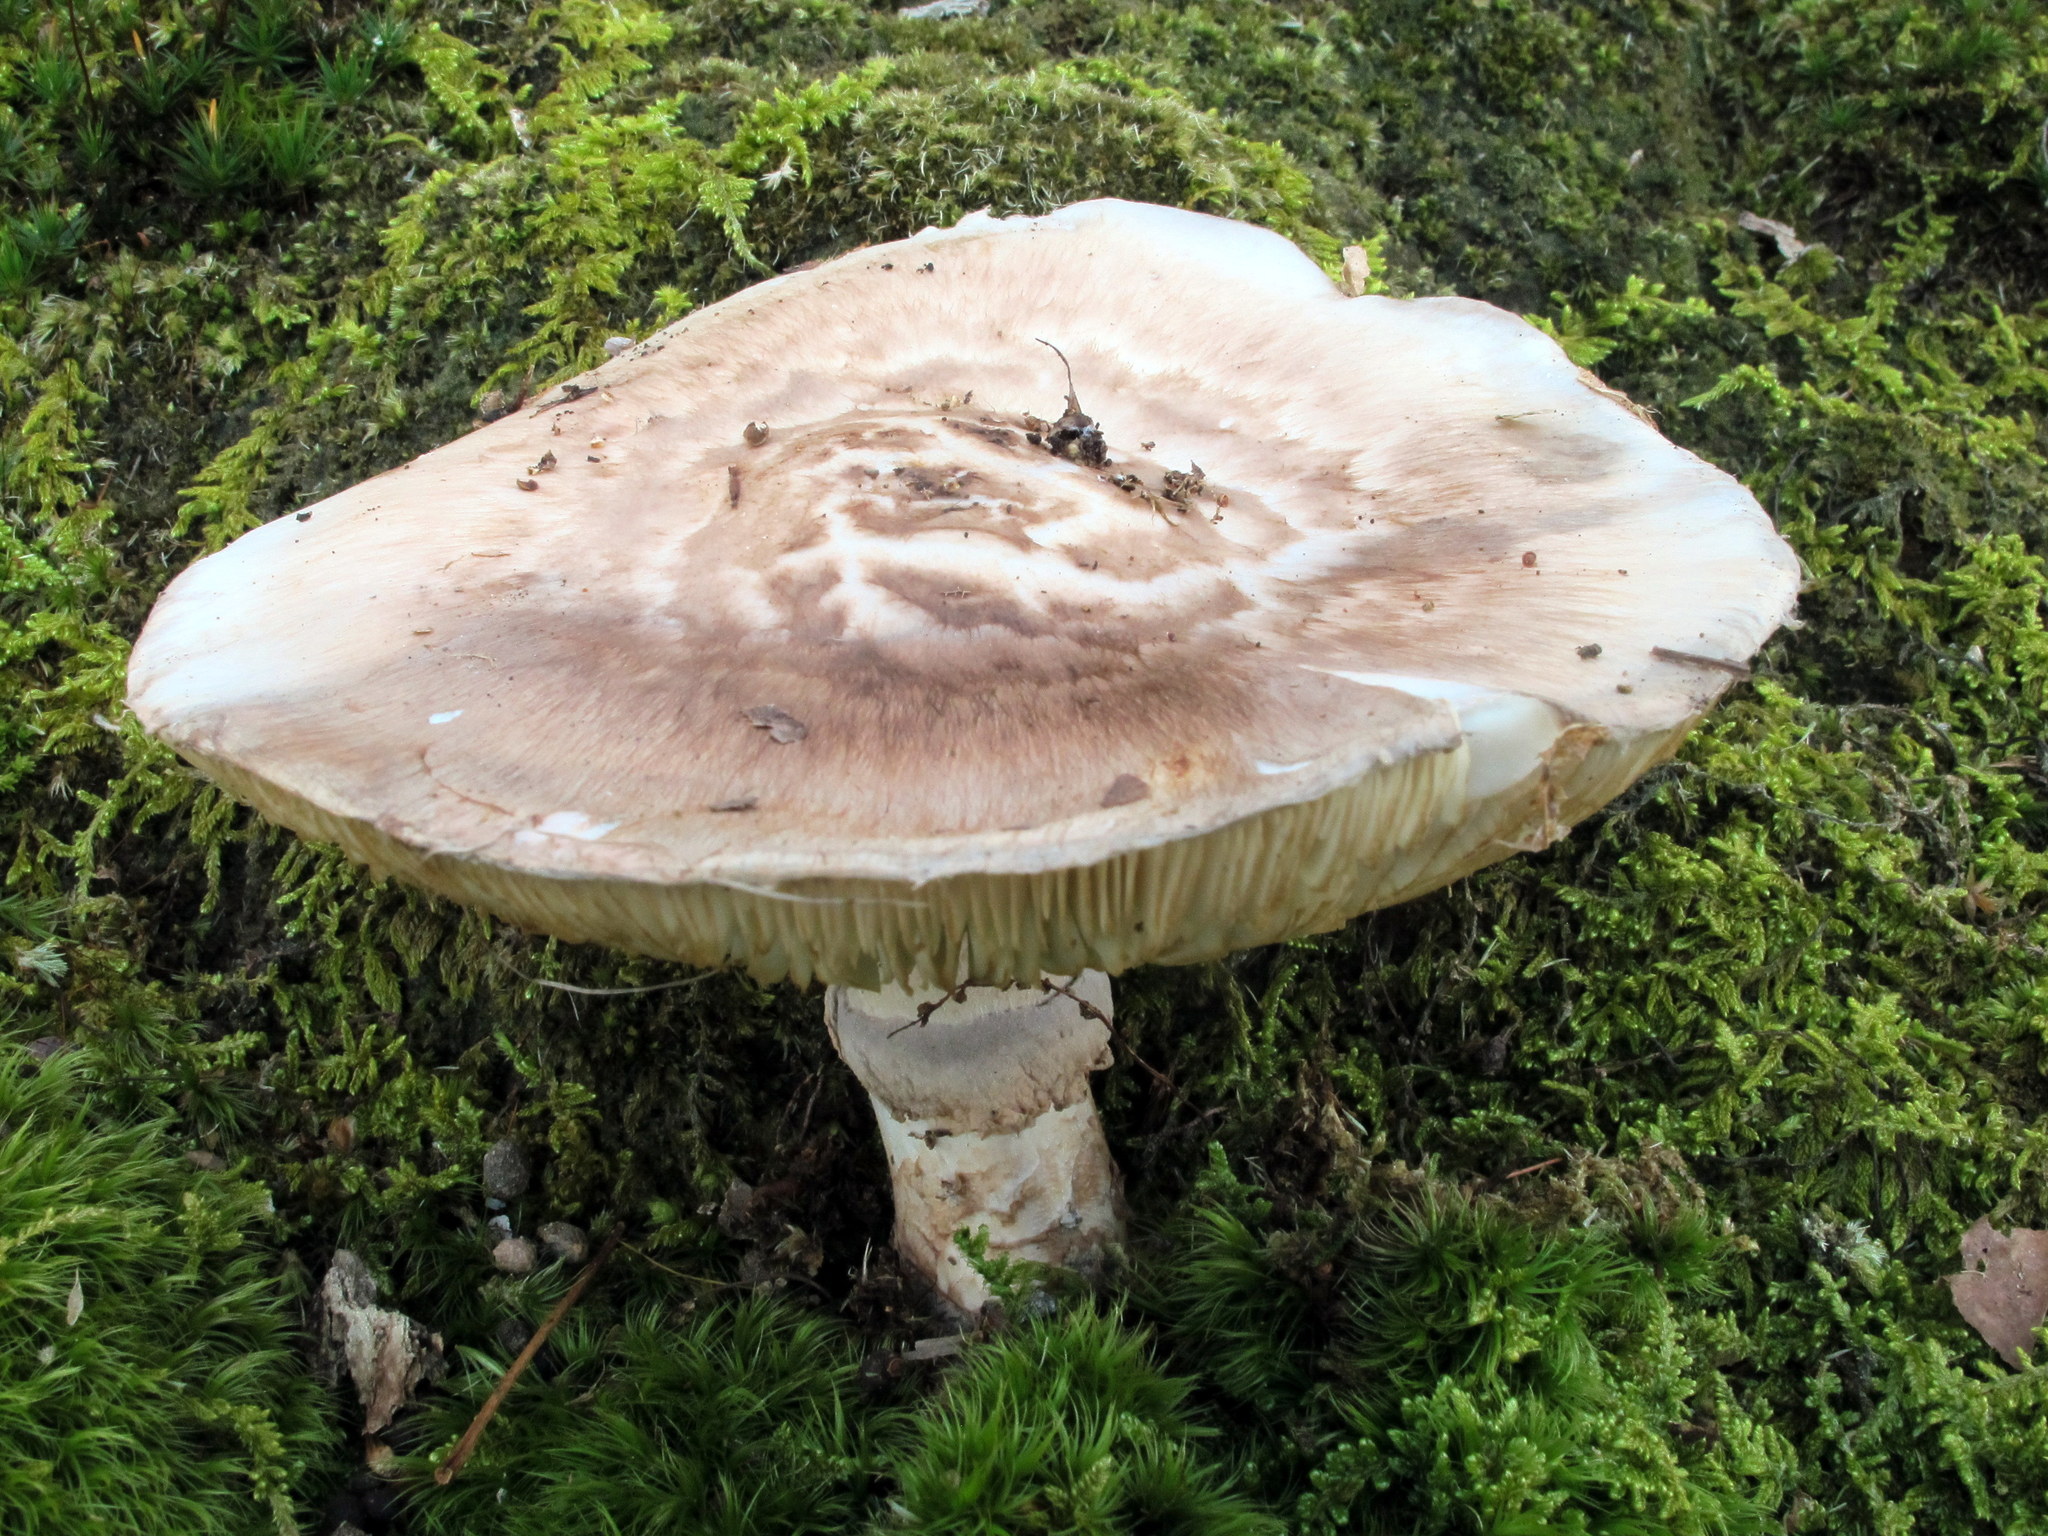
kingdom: Fungi
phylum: Basidiomycota
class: Agaricomycetes
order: Agaricales
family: Tricholomataceae
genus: Tricholoma
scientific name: Tricholoma caligatum
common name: True booted knight
